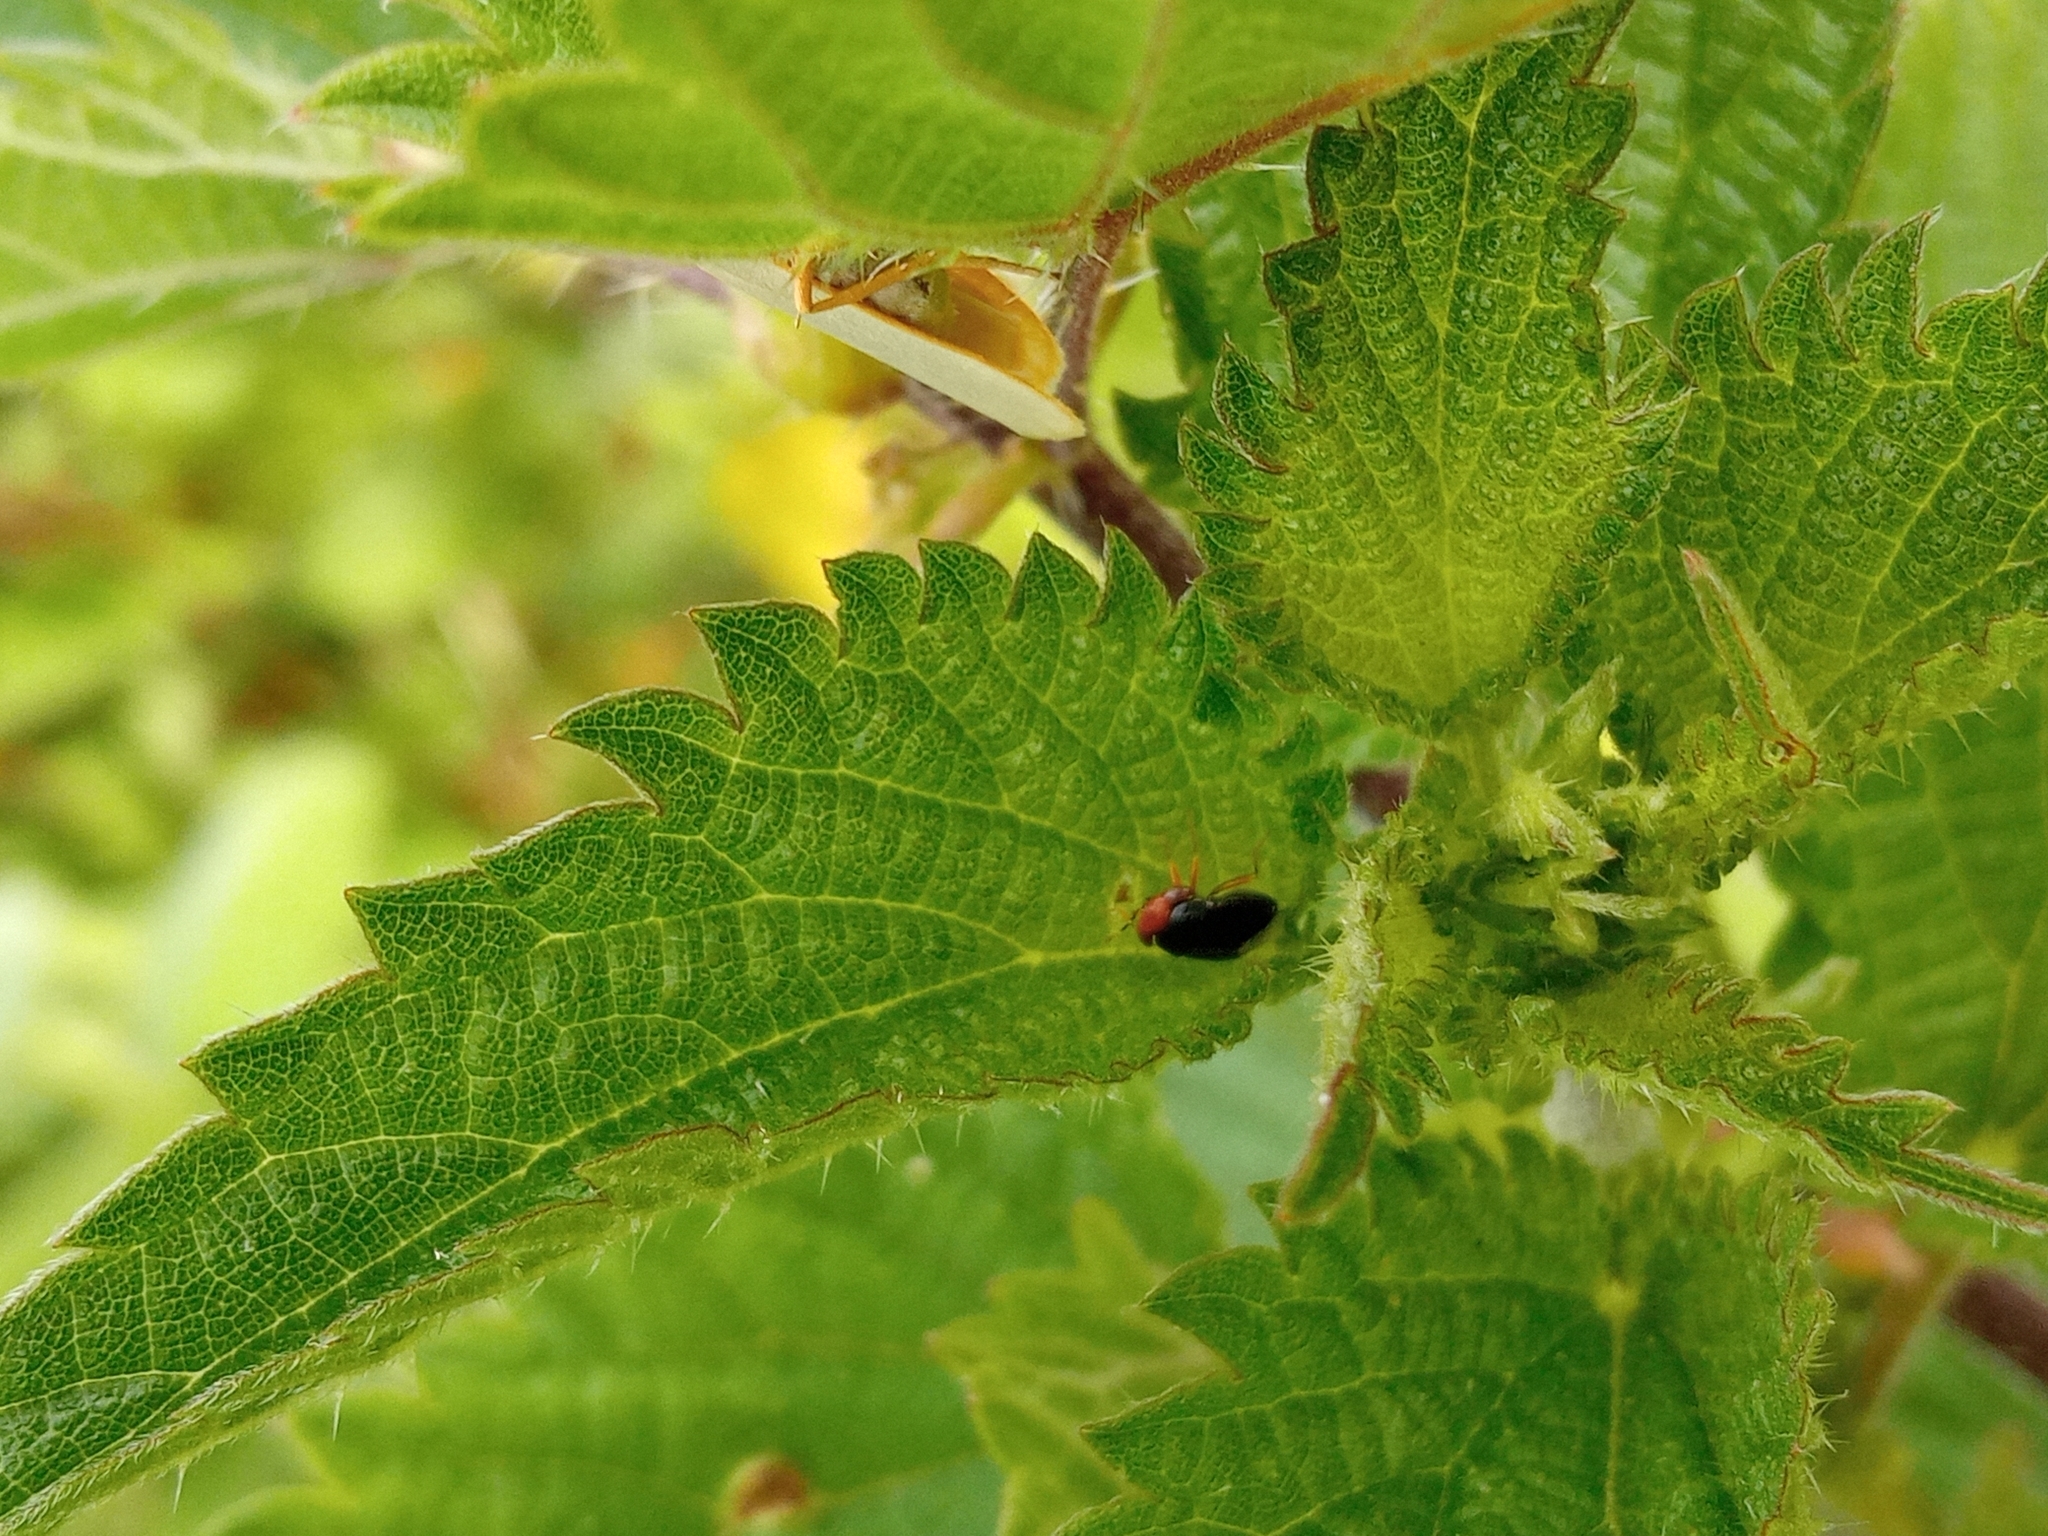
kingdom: Animalia
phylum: Arthropoda
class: Insecta
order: Hemiptera
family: Geocoridae
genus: Geocoris
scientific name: Geocoris erythrocephala
